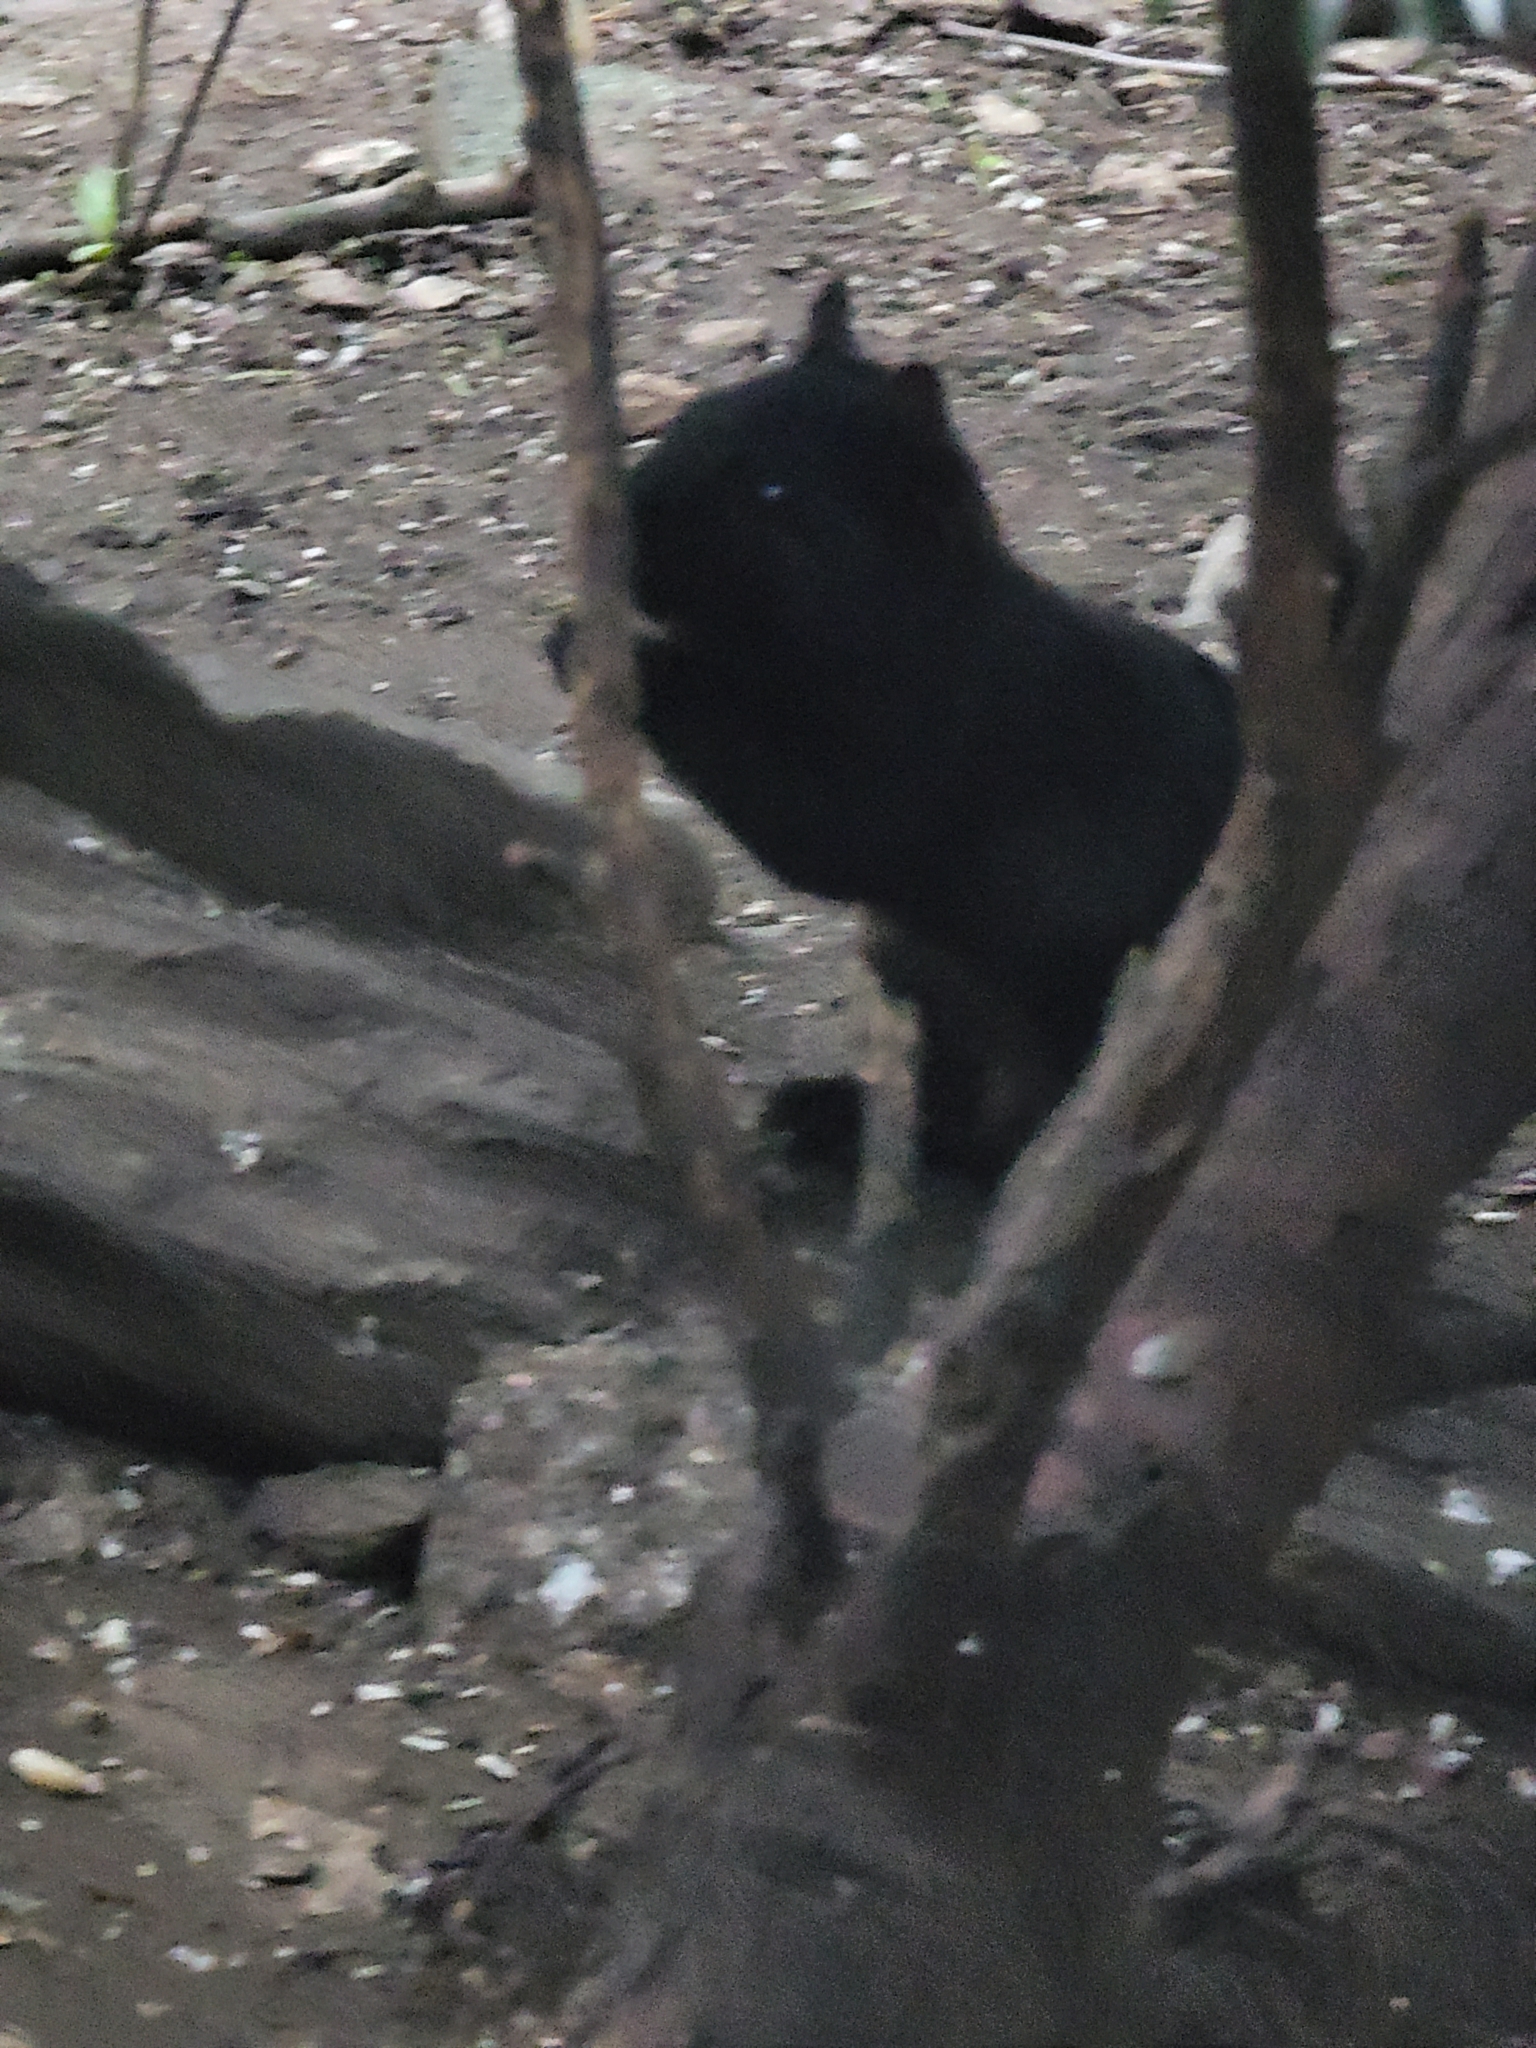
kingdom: Animalia
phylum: Chordata
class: Mammalia
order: Rodentia
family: Sciuridae
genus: Sciurus
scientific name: Sciurus carolinensis
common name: Eastern gray squirrel
